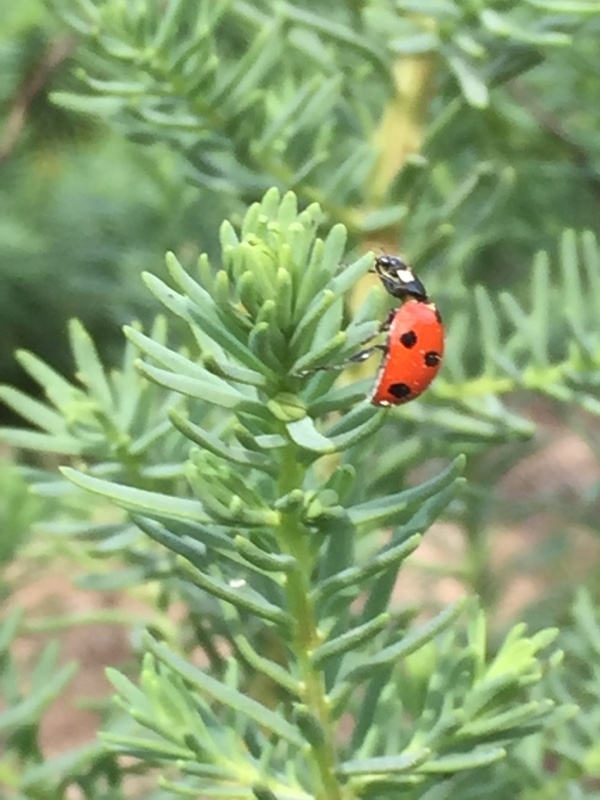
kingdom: Animalia
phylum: Arthropoda
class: Insecta
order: Coleoptera
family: Coccinellidae
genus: Coccinella
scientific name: Coccinella algerica
